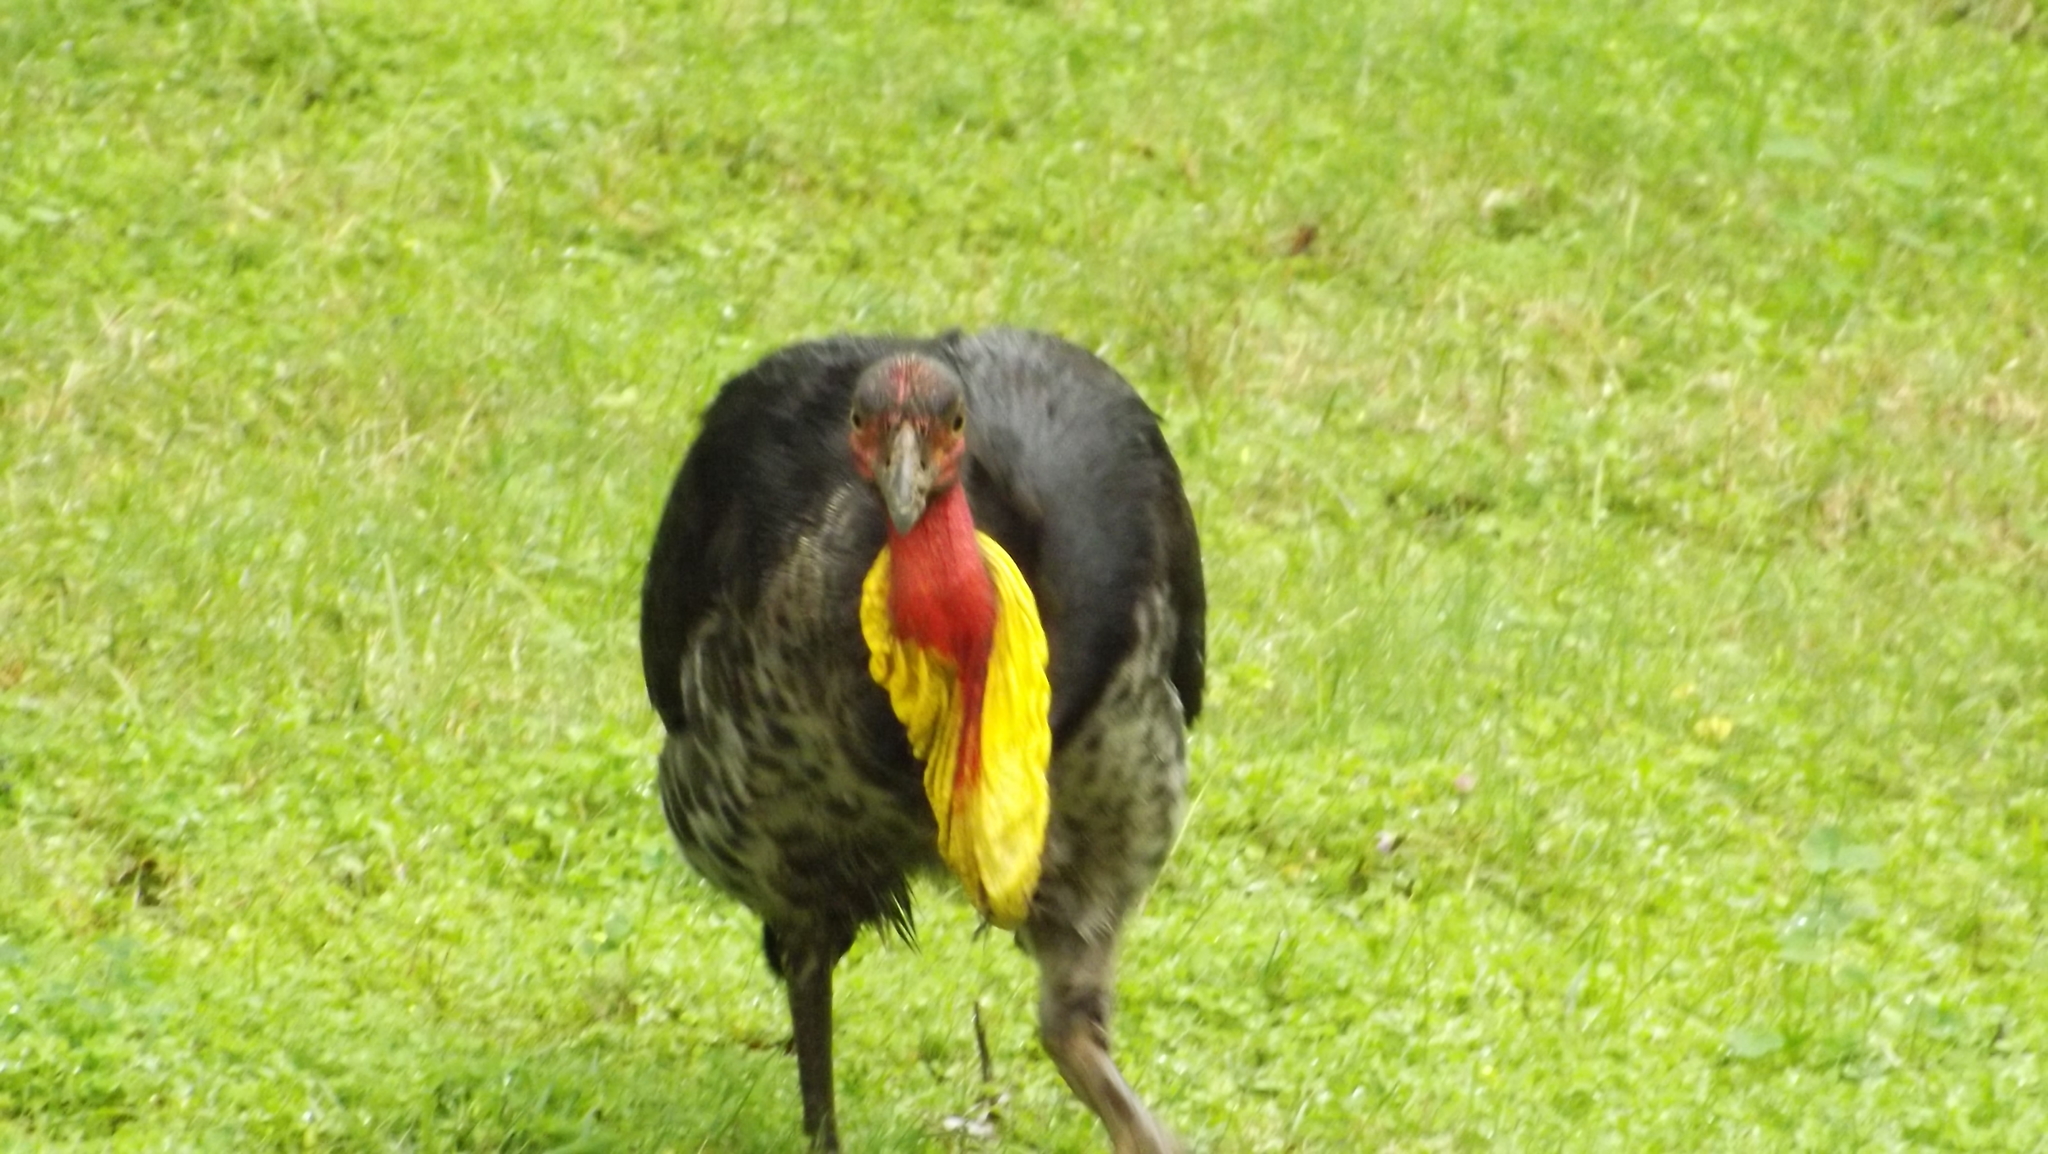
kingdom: Animalia
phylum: Chordata
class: Aves
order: Galliformes
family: Megapodiidae
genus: Alectura
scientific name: Alectura lathami
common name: Australian brushturkey
